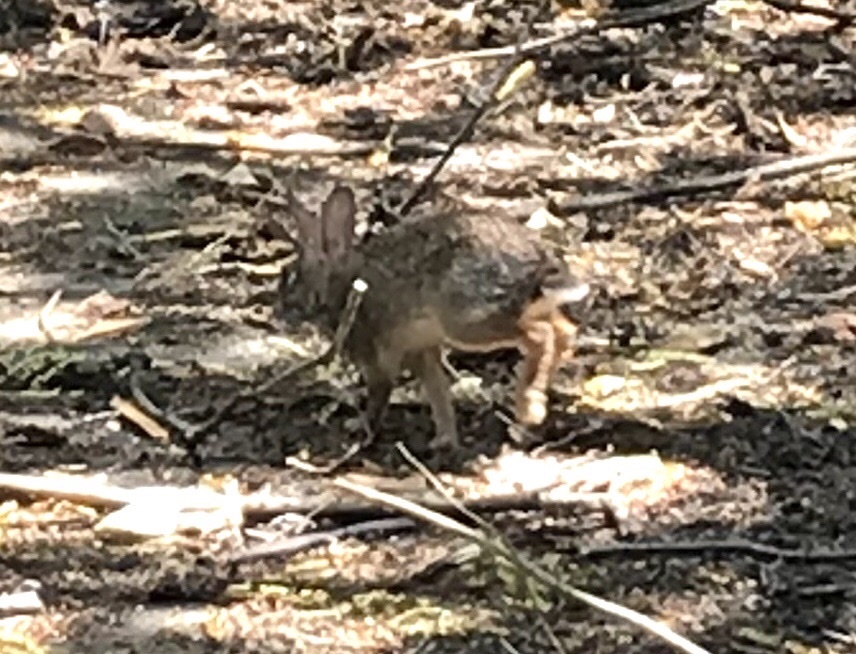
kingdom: Animalia
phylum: Chordata
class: Mammalia
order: Lagomorpha
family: Leporidae
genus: Sylvilagus
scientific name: Sylvilagus floridanus
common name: Eastern cottontail
